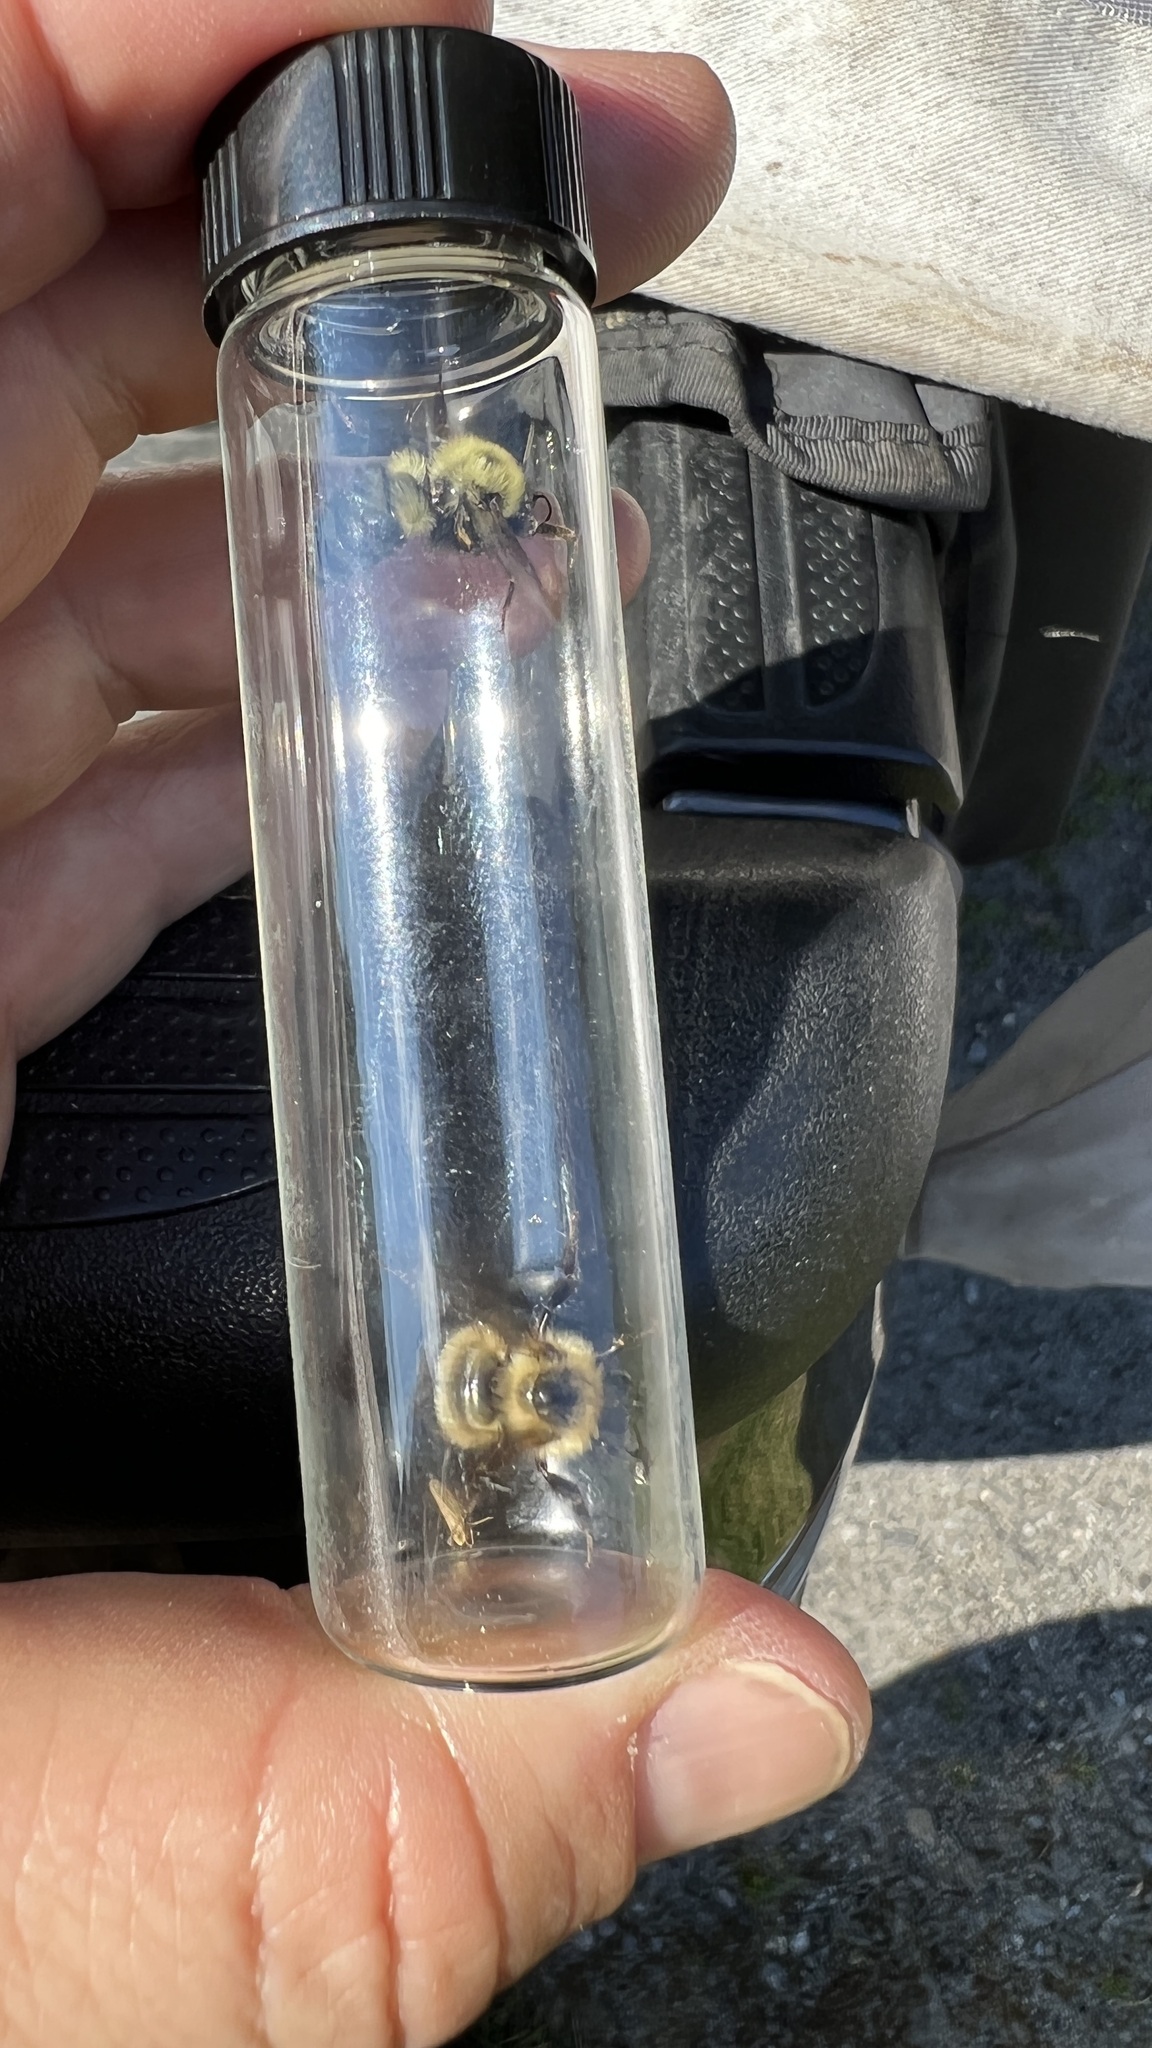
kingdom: Animalia
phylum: Arthropoda
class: Insecta
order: Hymenoptera
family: Apidae
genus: Bombus
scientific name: Bombus bimaculatus
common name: Two-spotted bumble bee
